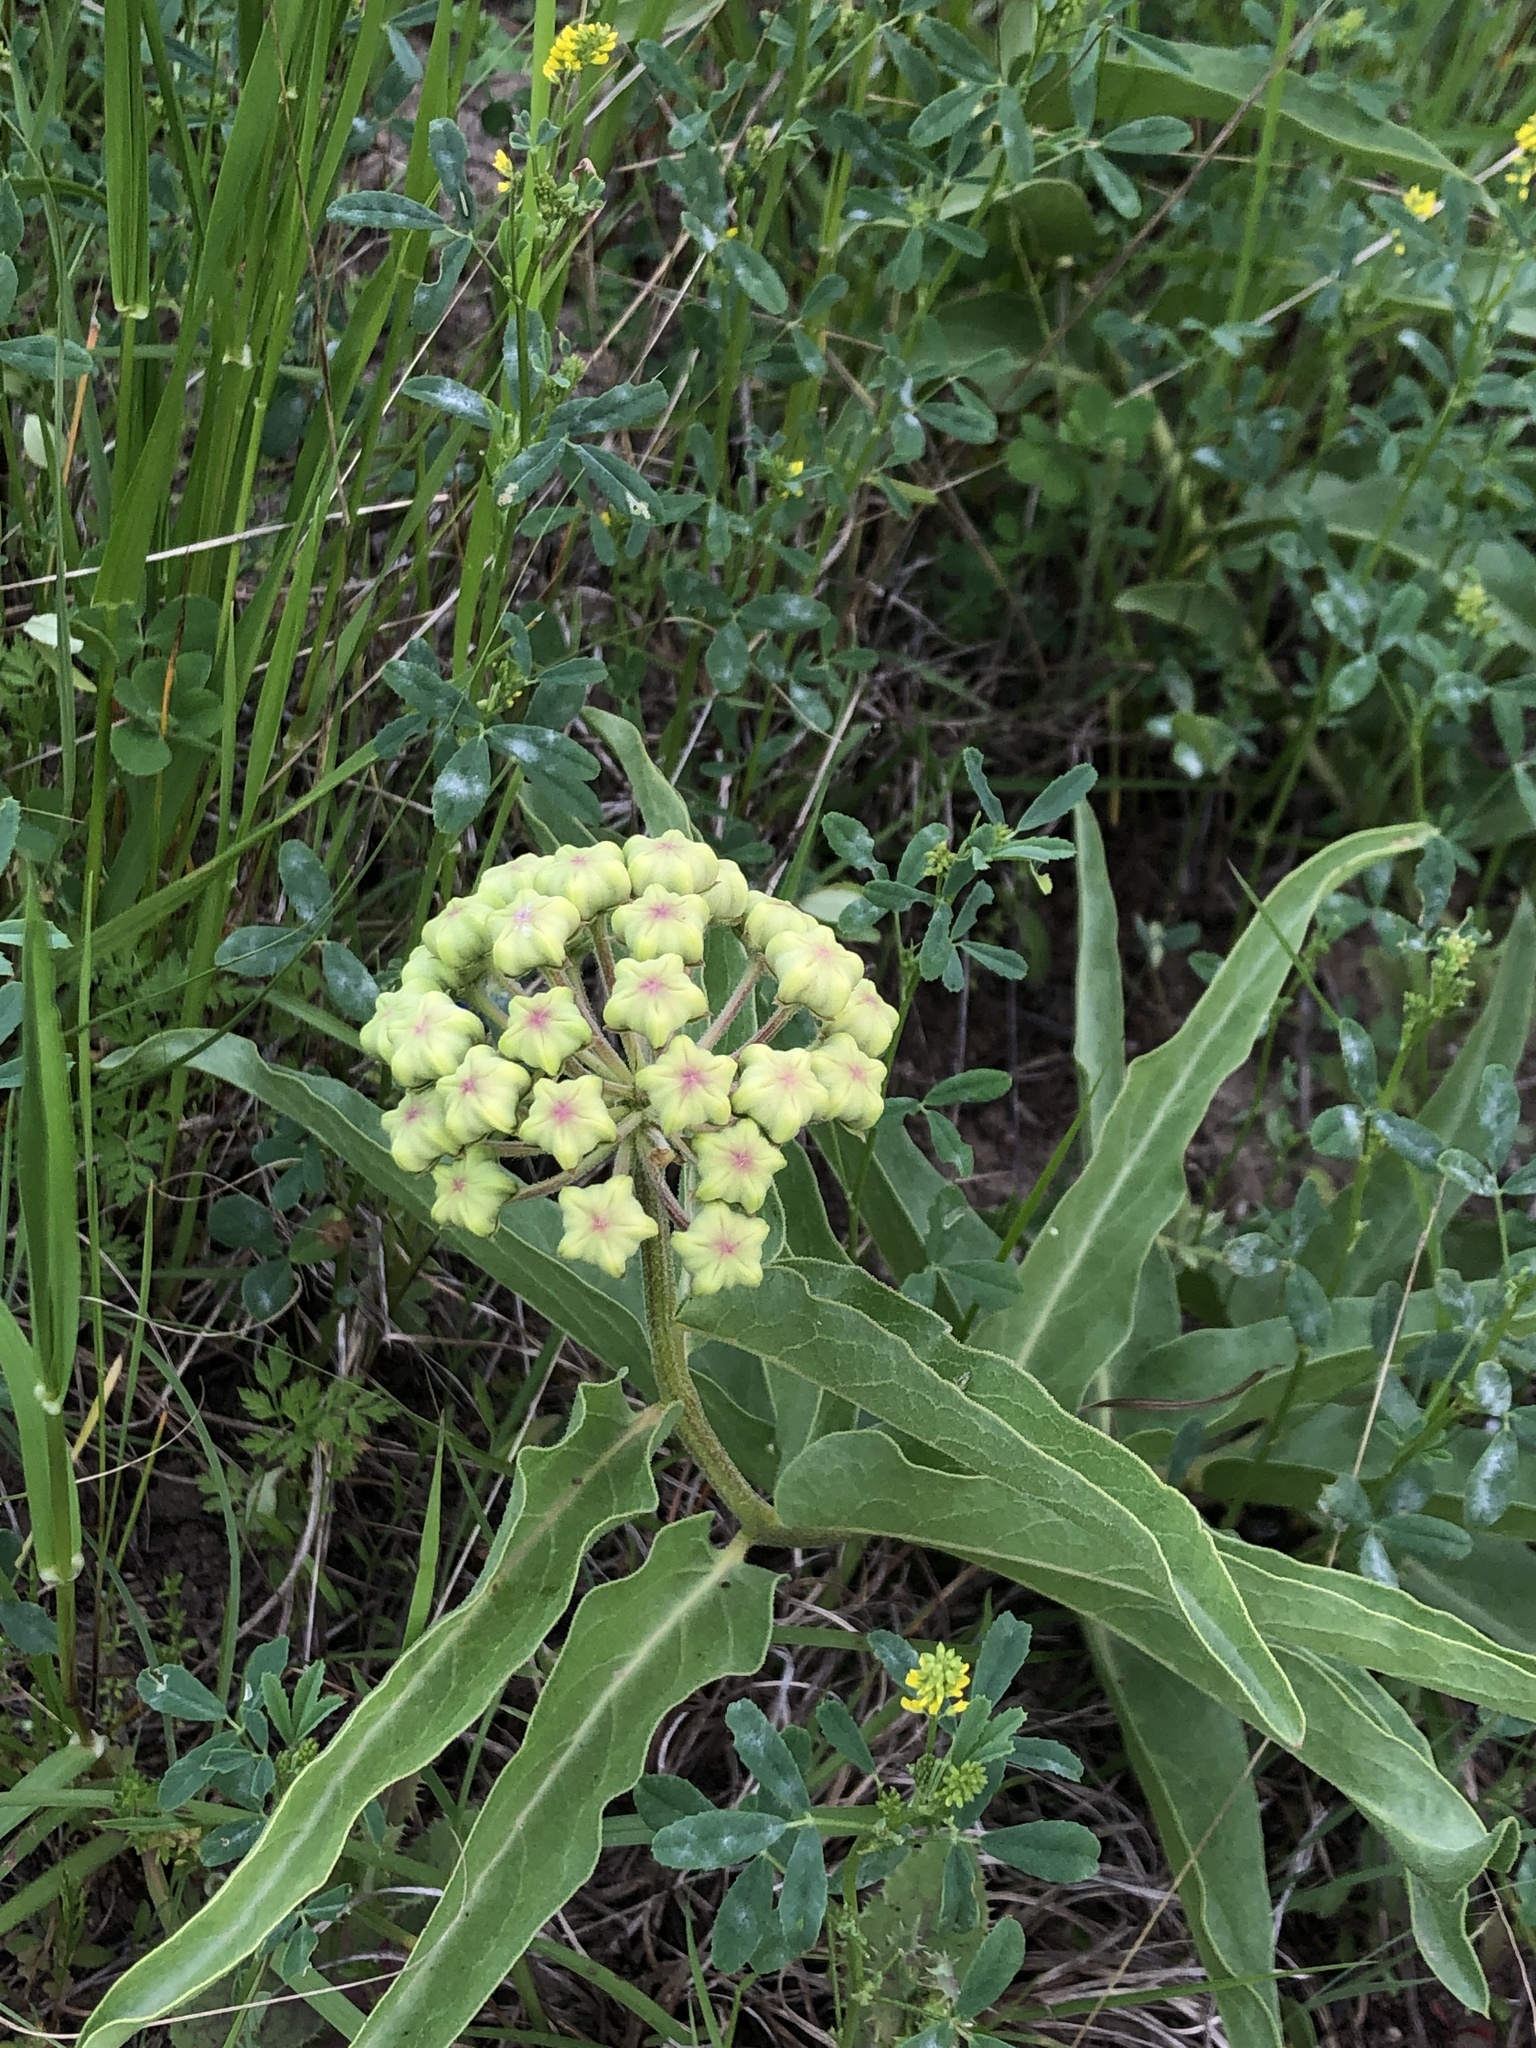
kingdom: Plantae
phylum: Tracheophyta
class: Magnoliopsida
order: Gentianales
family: Apocynaceae
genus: Asclepias
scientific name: Asclepias asperula
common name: Antelope horns
